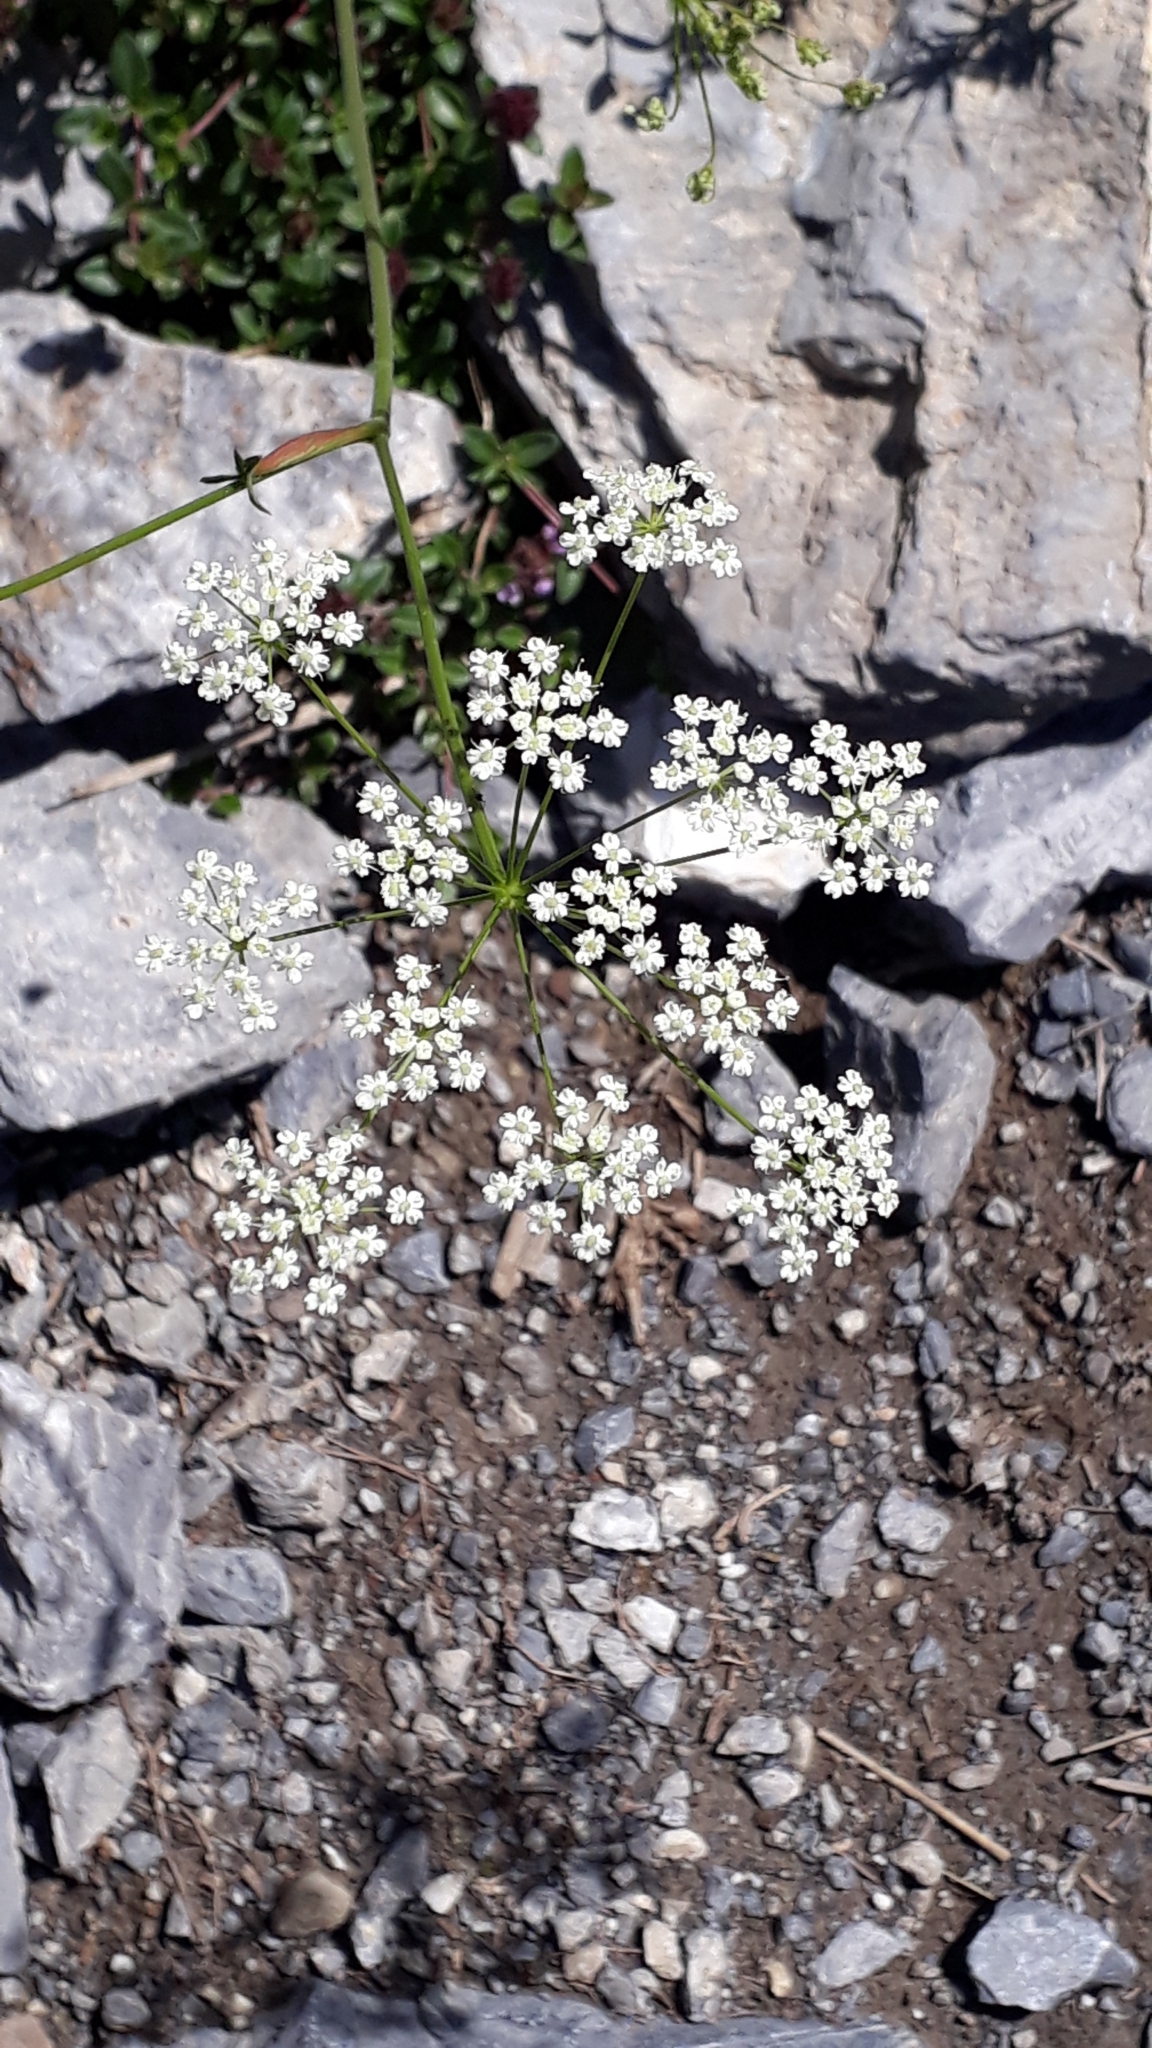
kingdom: Plantae
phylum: Tracheophyta
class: Magnoliopsida
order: Apiales
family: Apiaceae
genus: Pimpinella
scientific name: Pimpinella saxifraga
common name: Burnet-saxifrage
